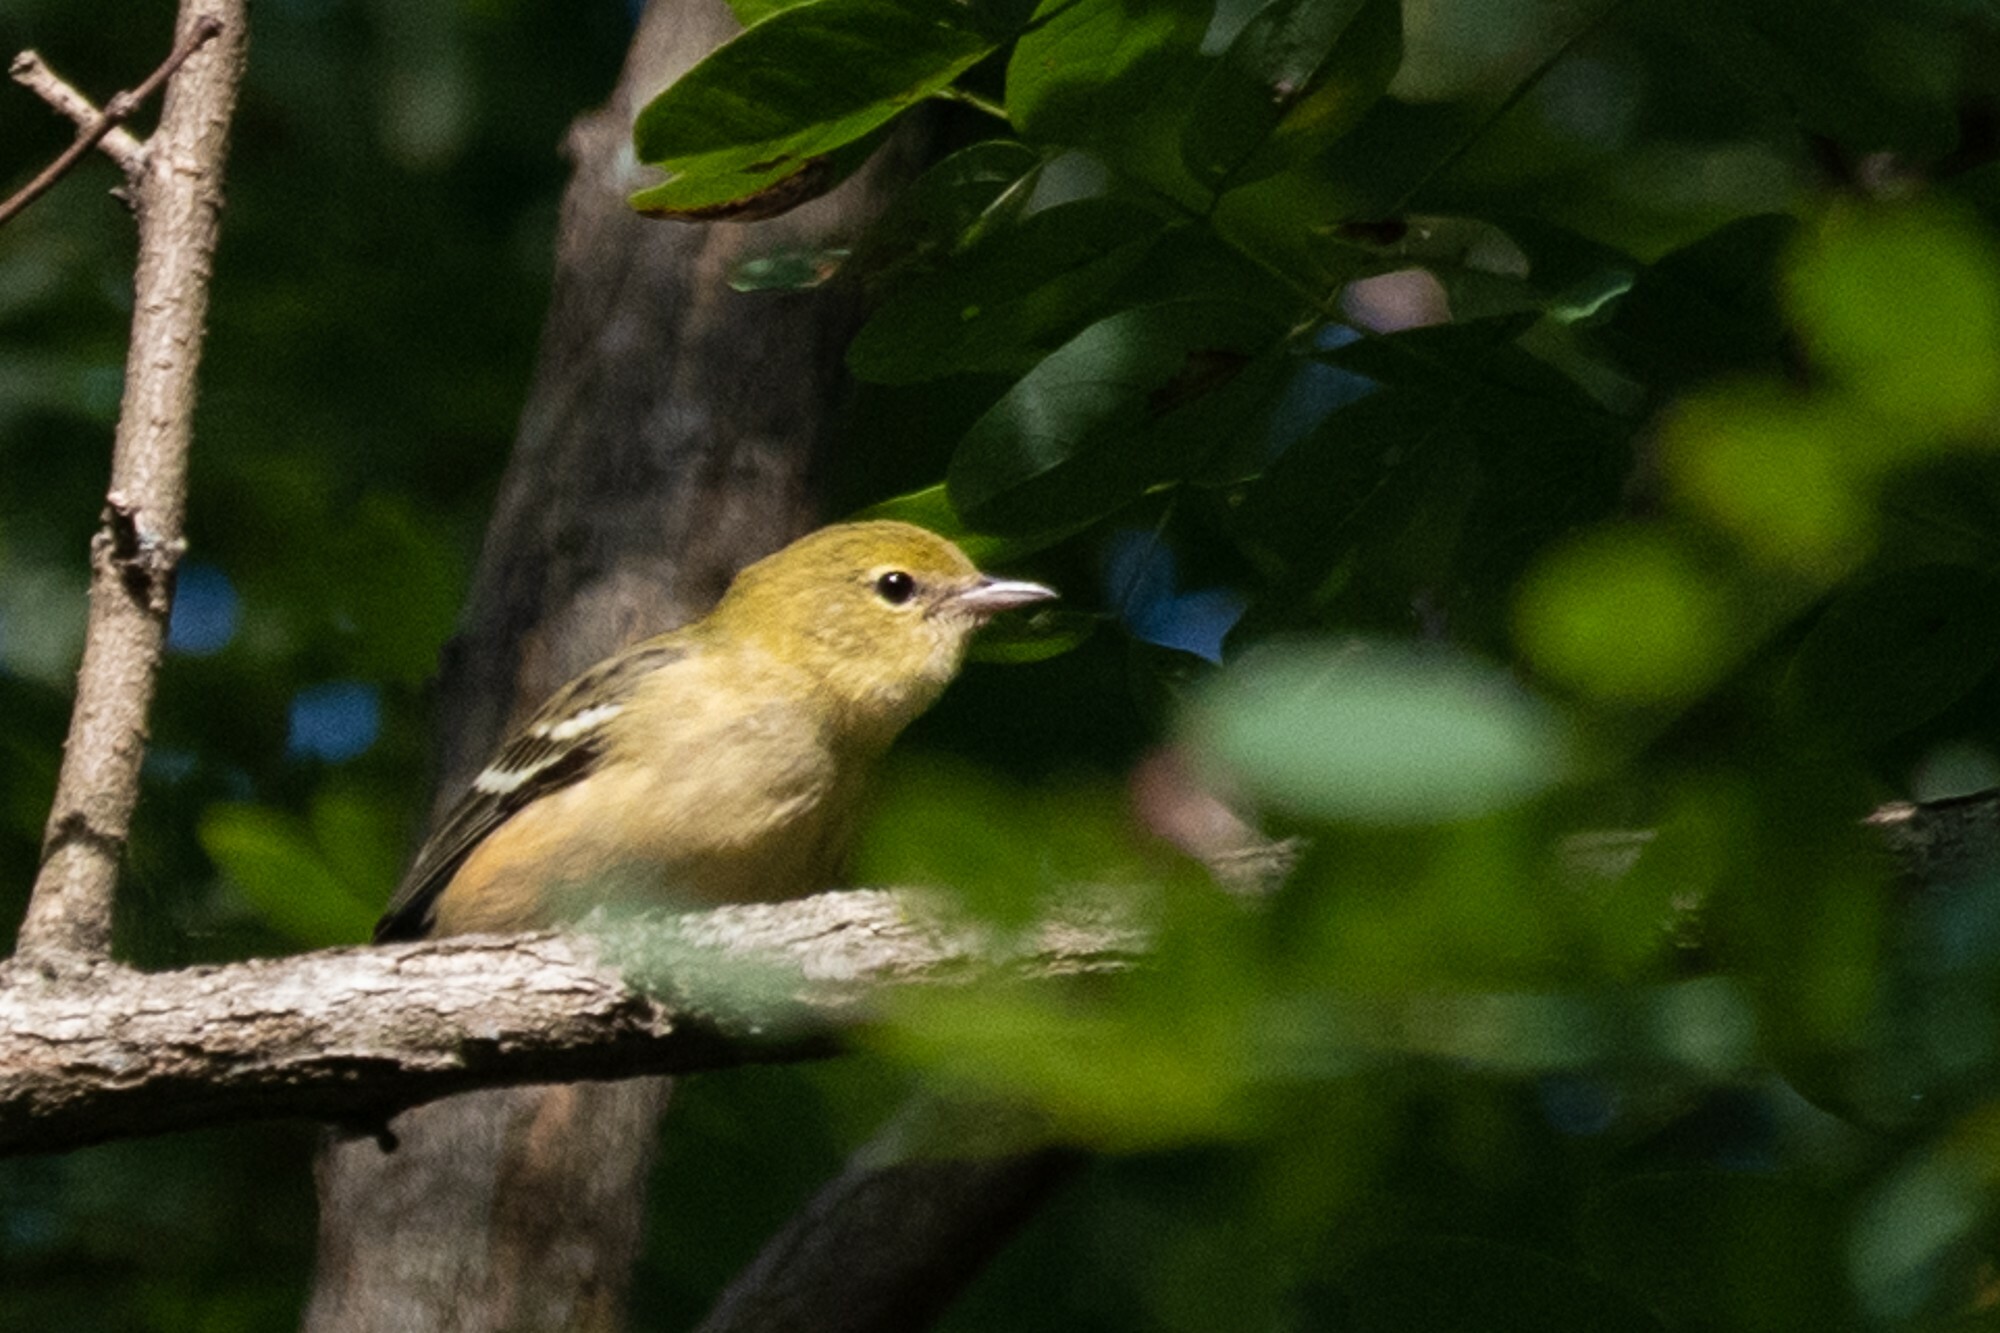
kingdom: Animalia
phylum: Chordata
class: Aves
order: Passeriformes
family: Parulidae
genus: Setophaga
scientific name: Setophaga castanea
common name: Bay-breasted warbler
